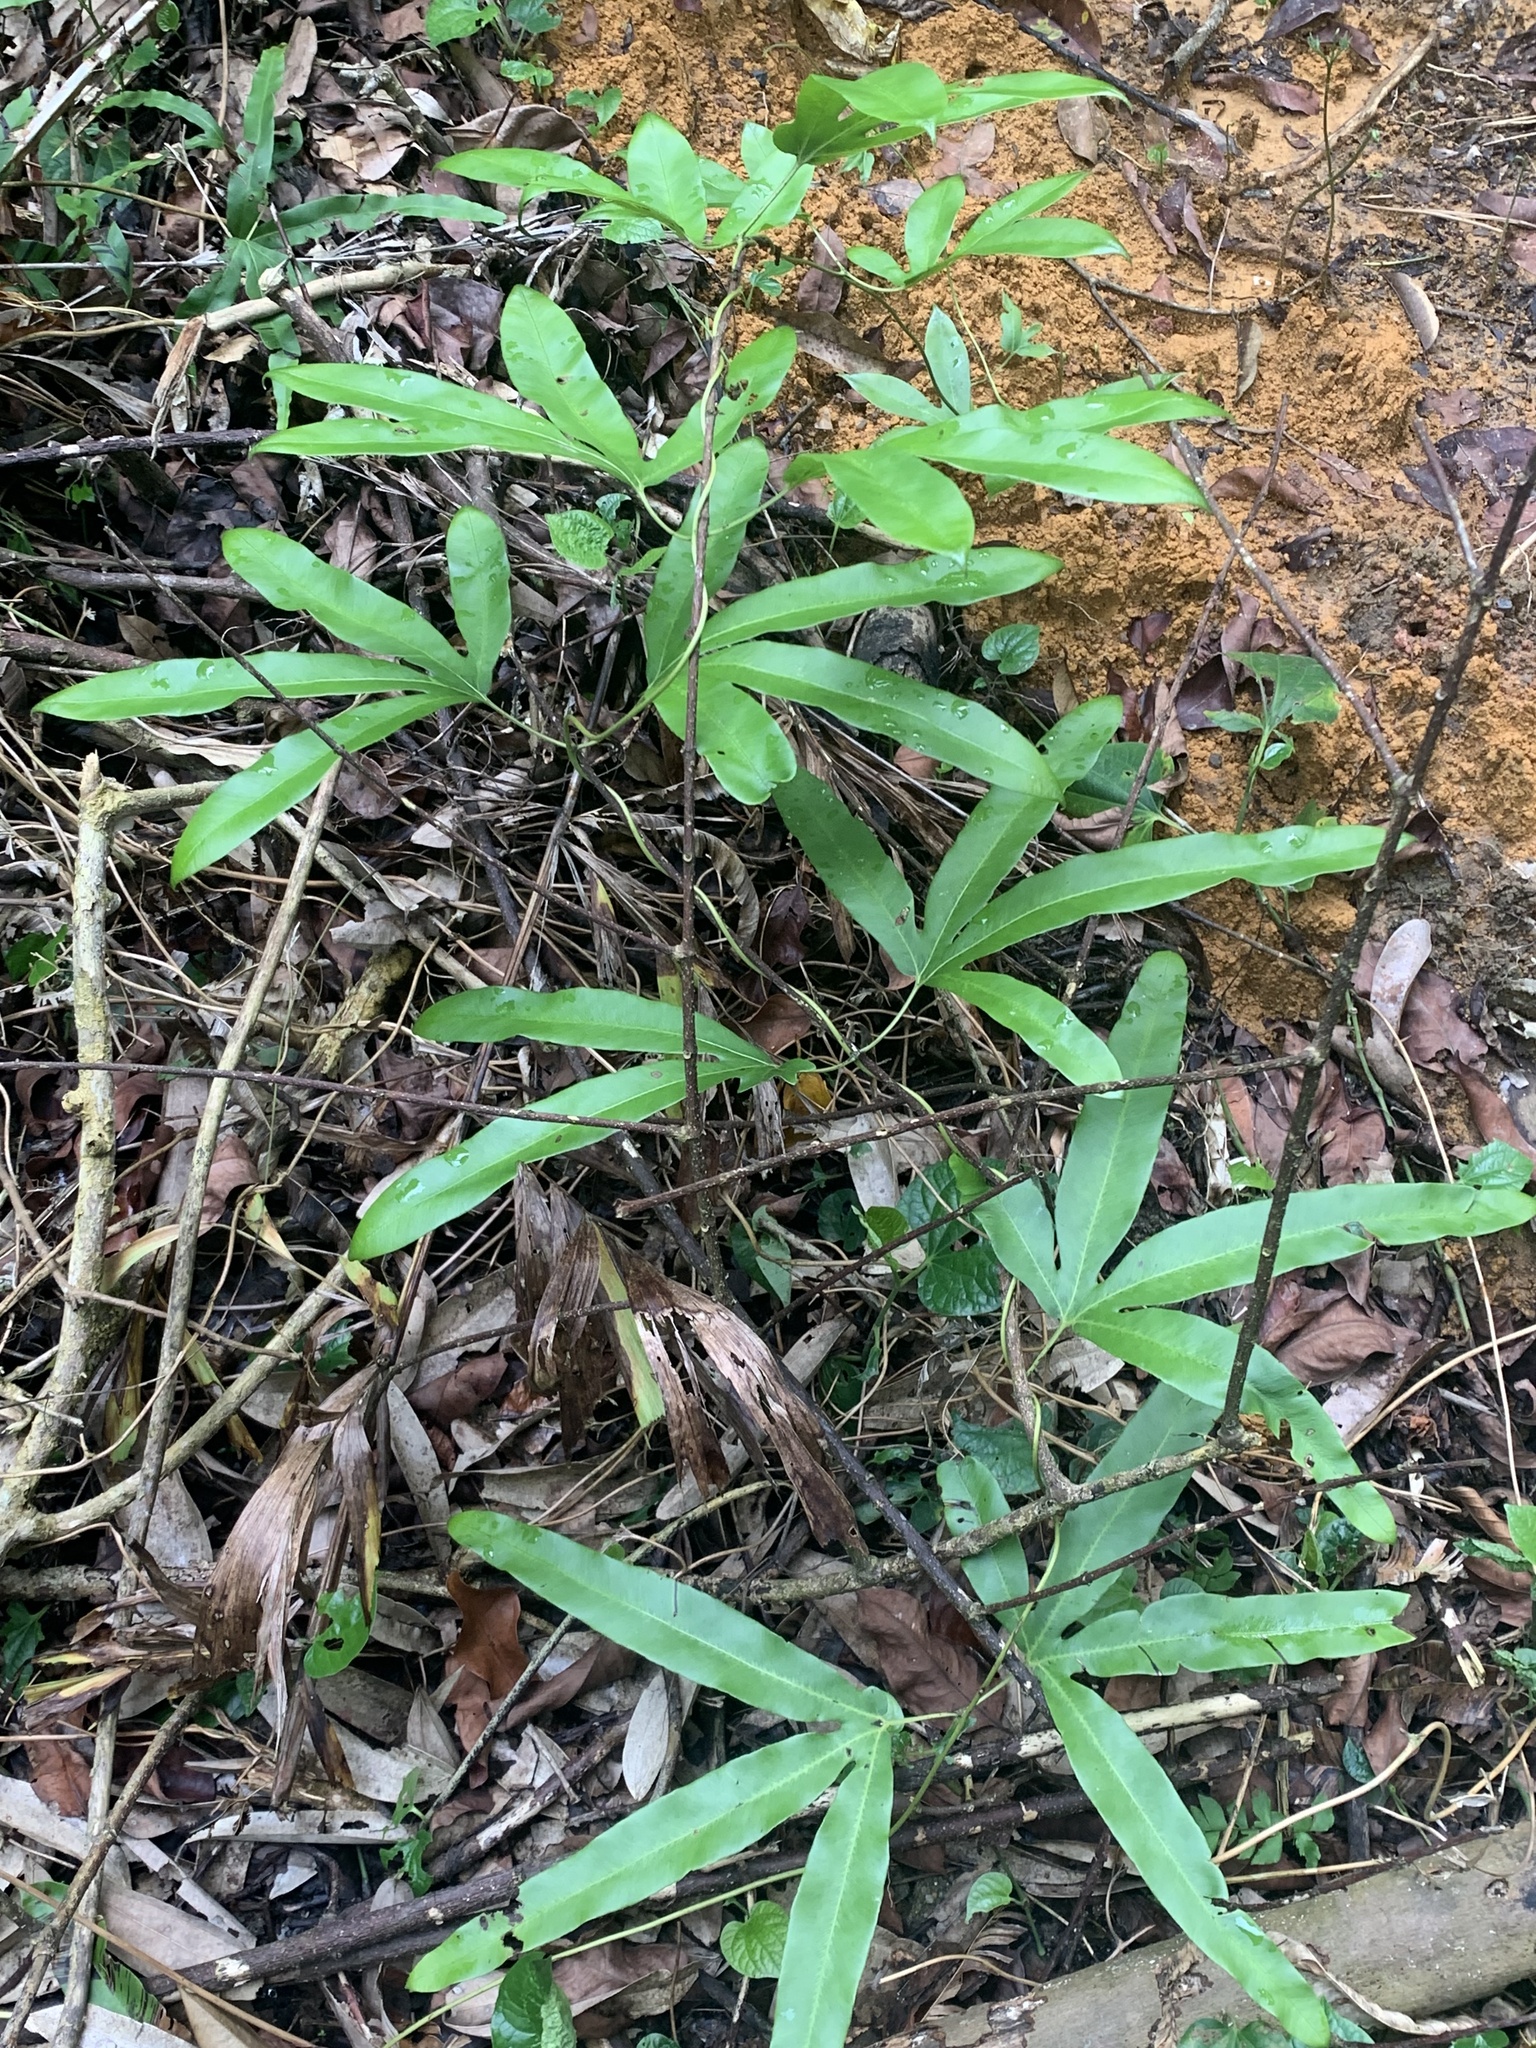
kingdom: Plantae
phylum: Tracheophyta
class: Polypodiopsida
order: Schizaeales
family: Lygodiaceae
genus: Lygodium
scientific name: Lygodium circinnatum
